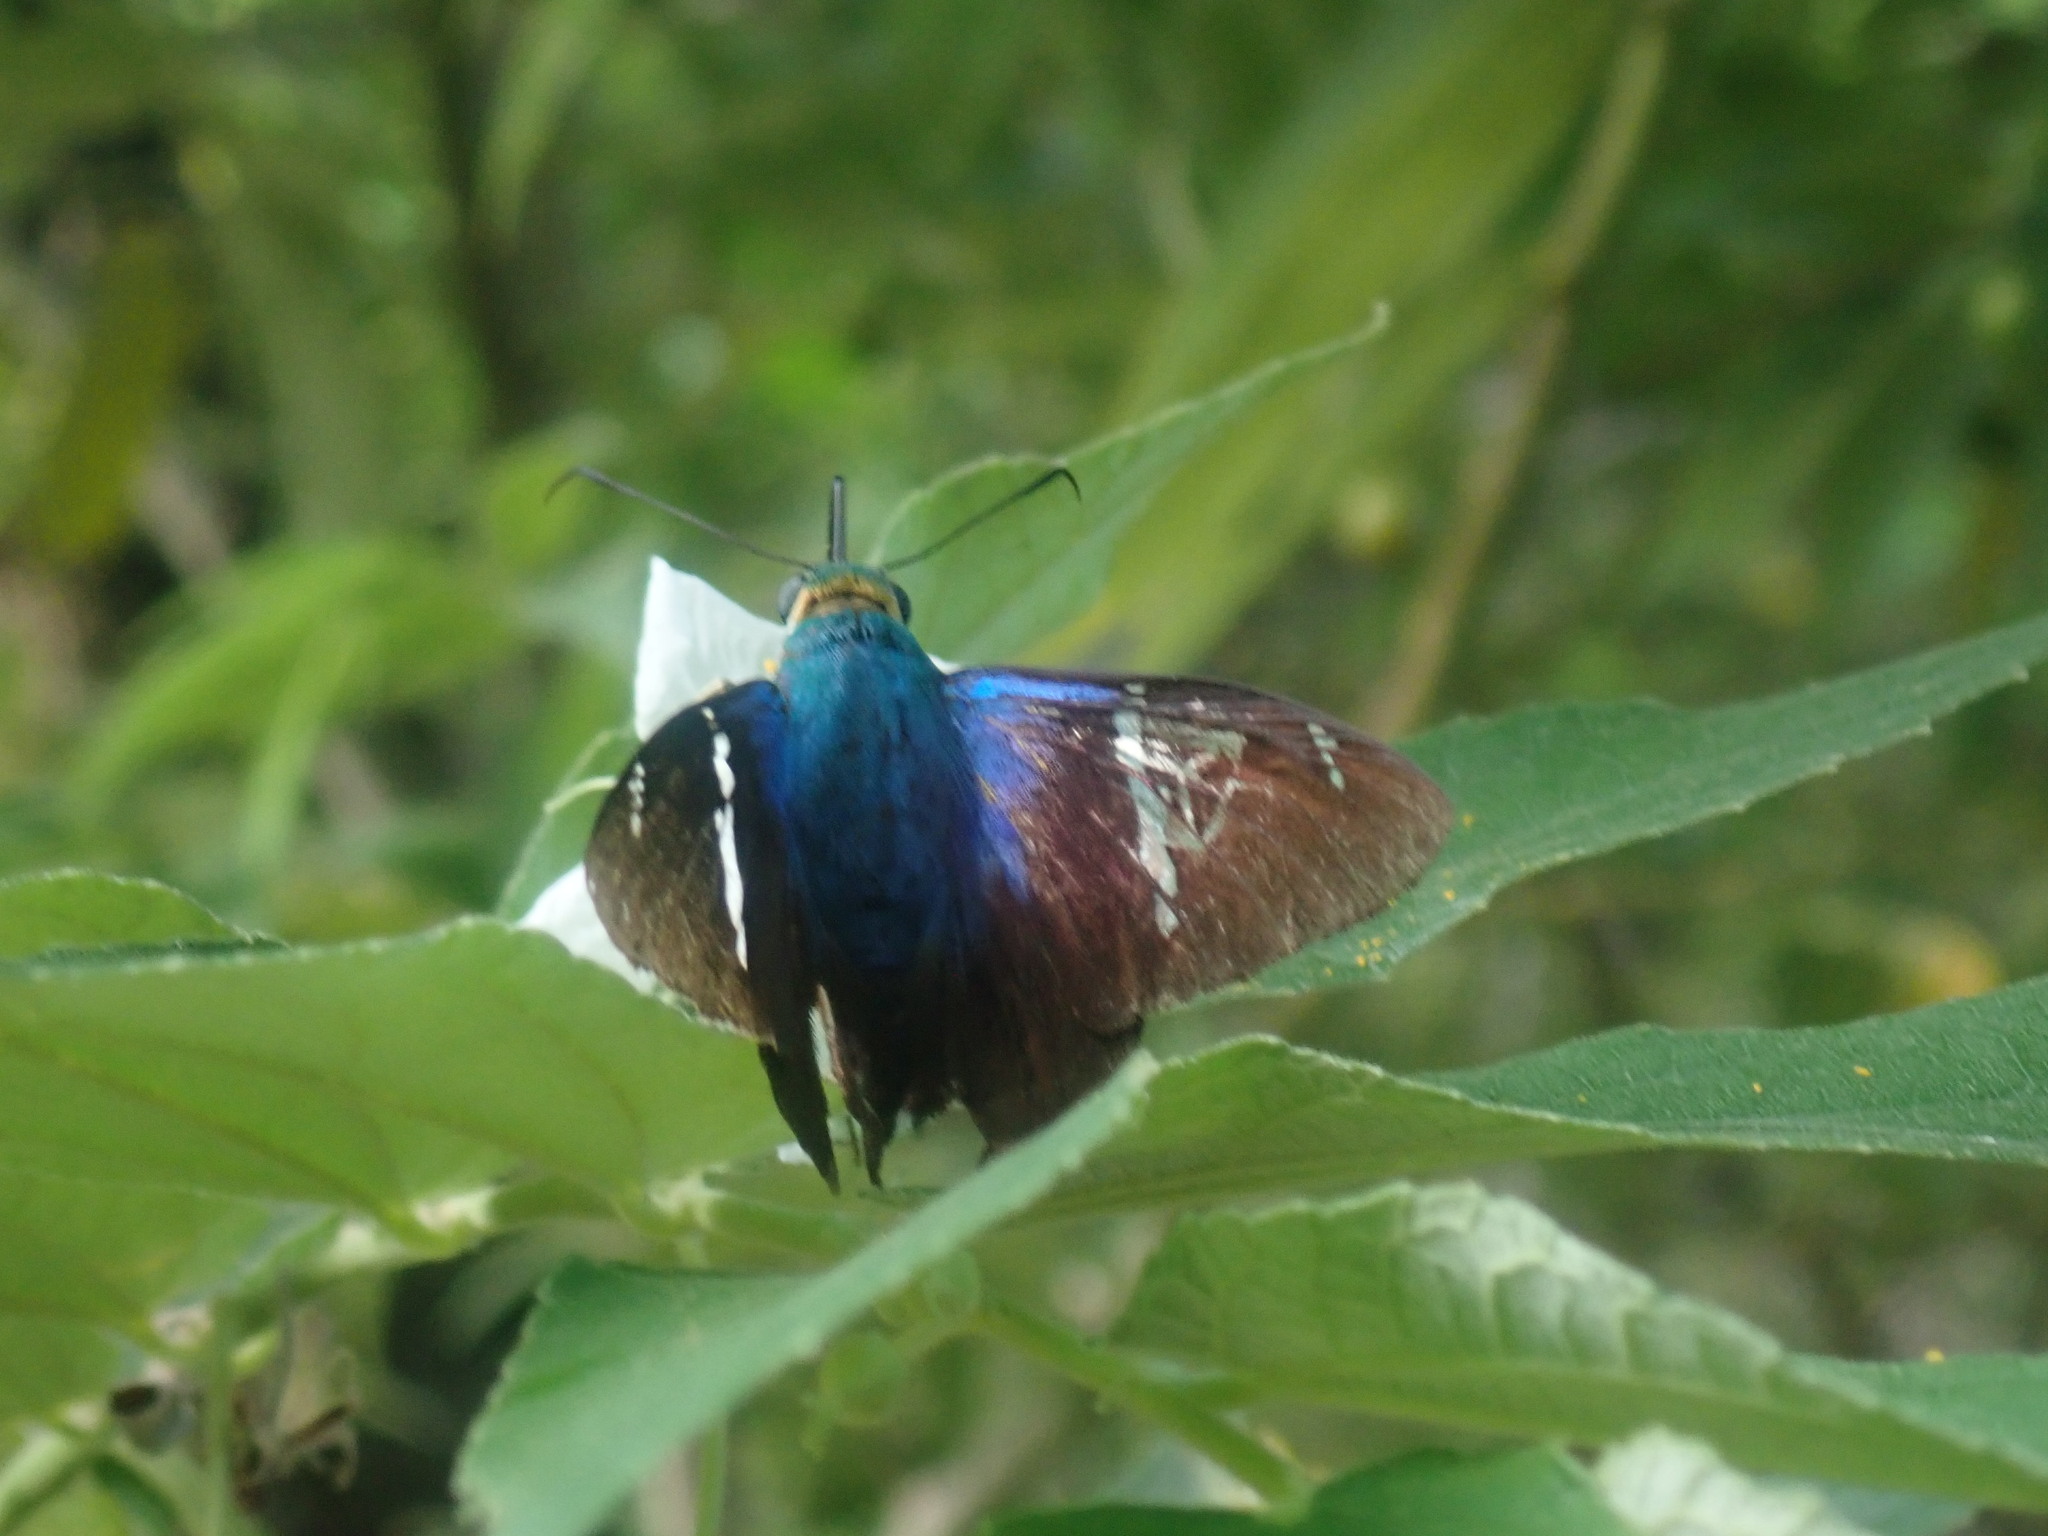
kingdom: Animalia
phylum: Arthropoda
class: Insecta
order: Lepidoptera
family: Hesperiidae
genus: Astraptes
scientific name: Astraptes fulgerator
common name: Two-barred flasher
